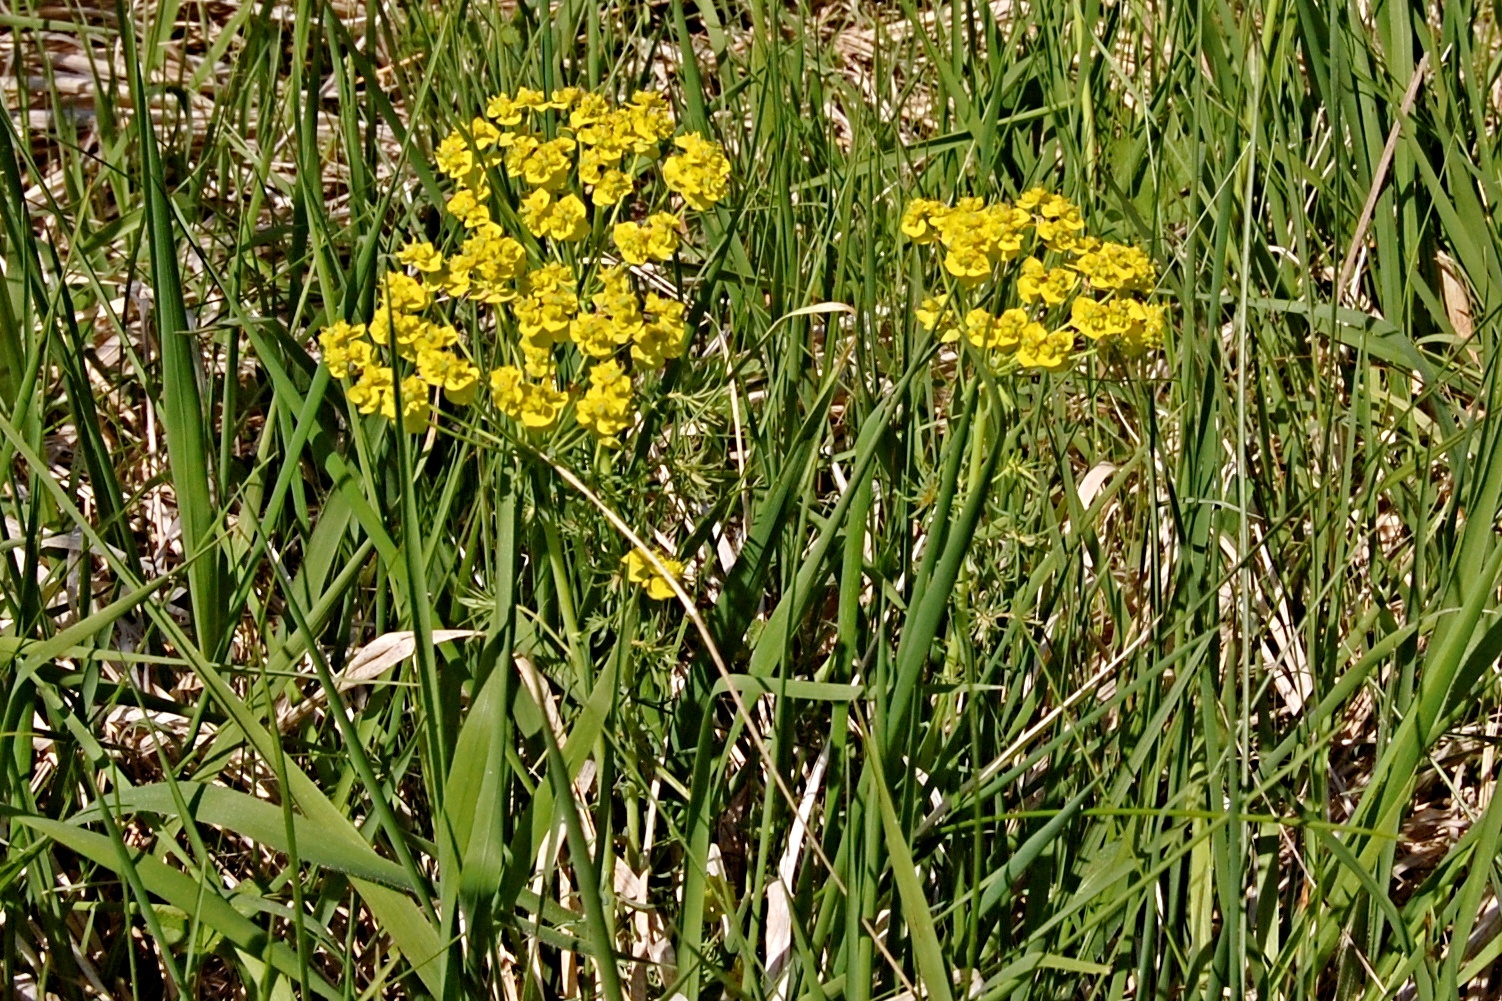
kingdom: Plantae
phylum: Tracheophyta
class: Magnoliopsida
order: Malpighiales
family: Euphorbiaceae
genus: Euphorbia
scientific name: Euphorbia cyparissias
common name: Cypress spurge
